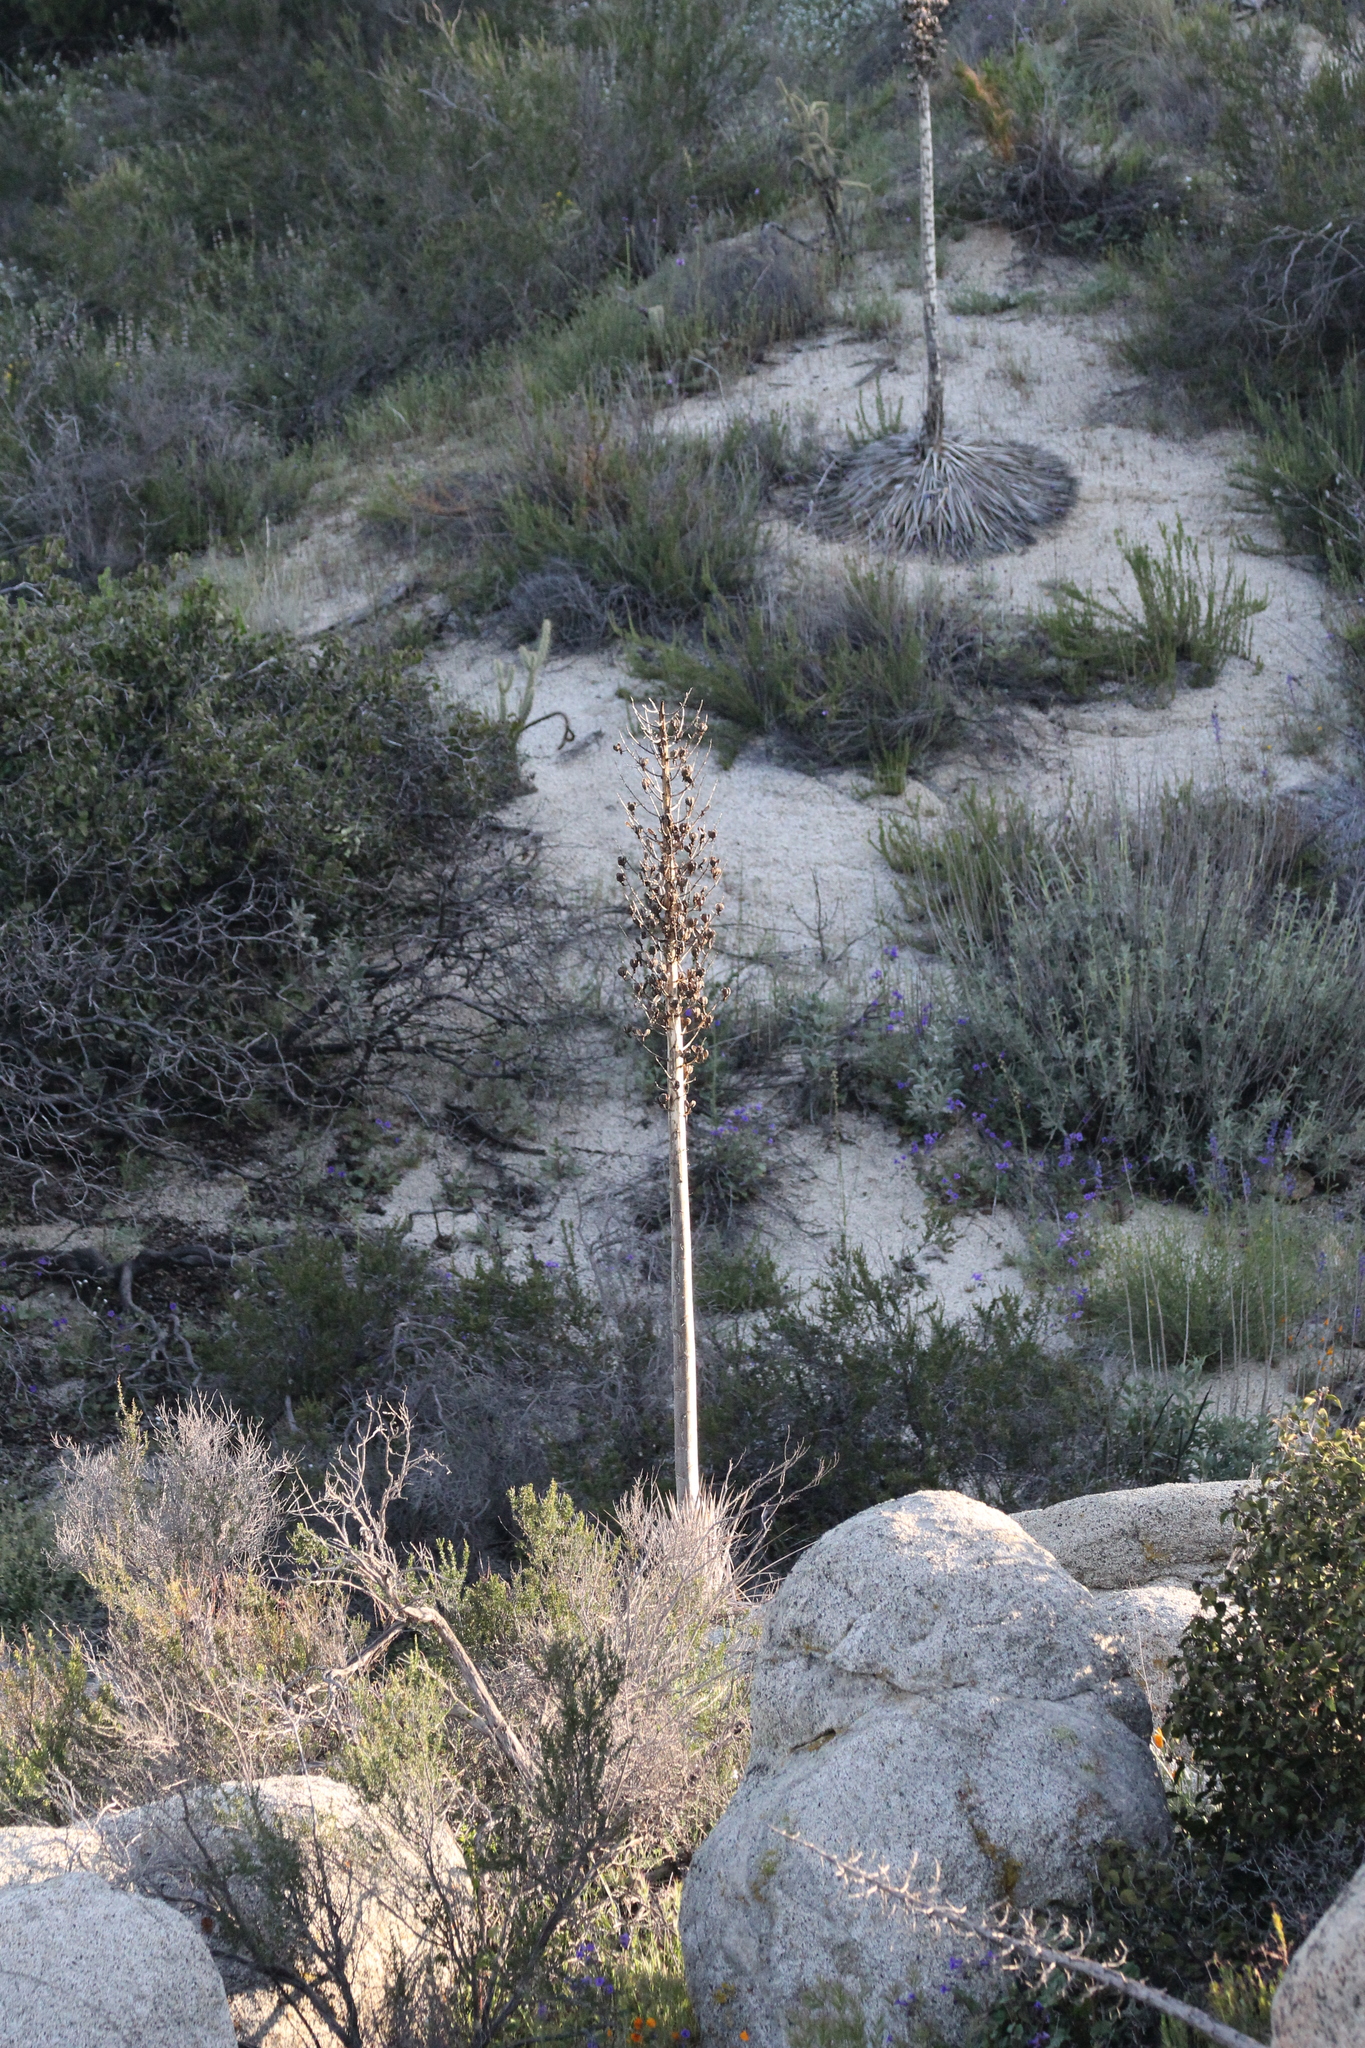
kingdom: Plantae
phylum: Tracheophyta
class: Liliopsida
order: Asparagales
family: Asparagaceae
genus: Hesperoyucca
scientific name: Hesperoyucca whipplei
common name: Our lord's-candle
